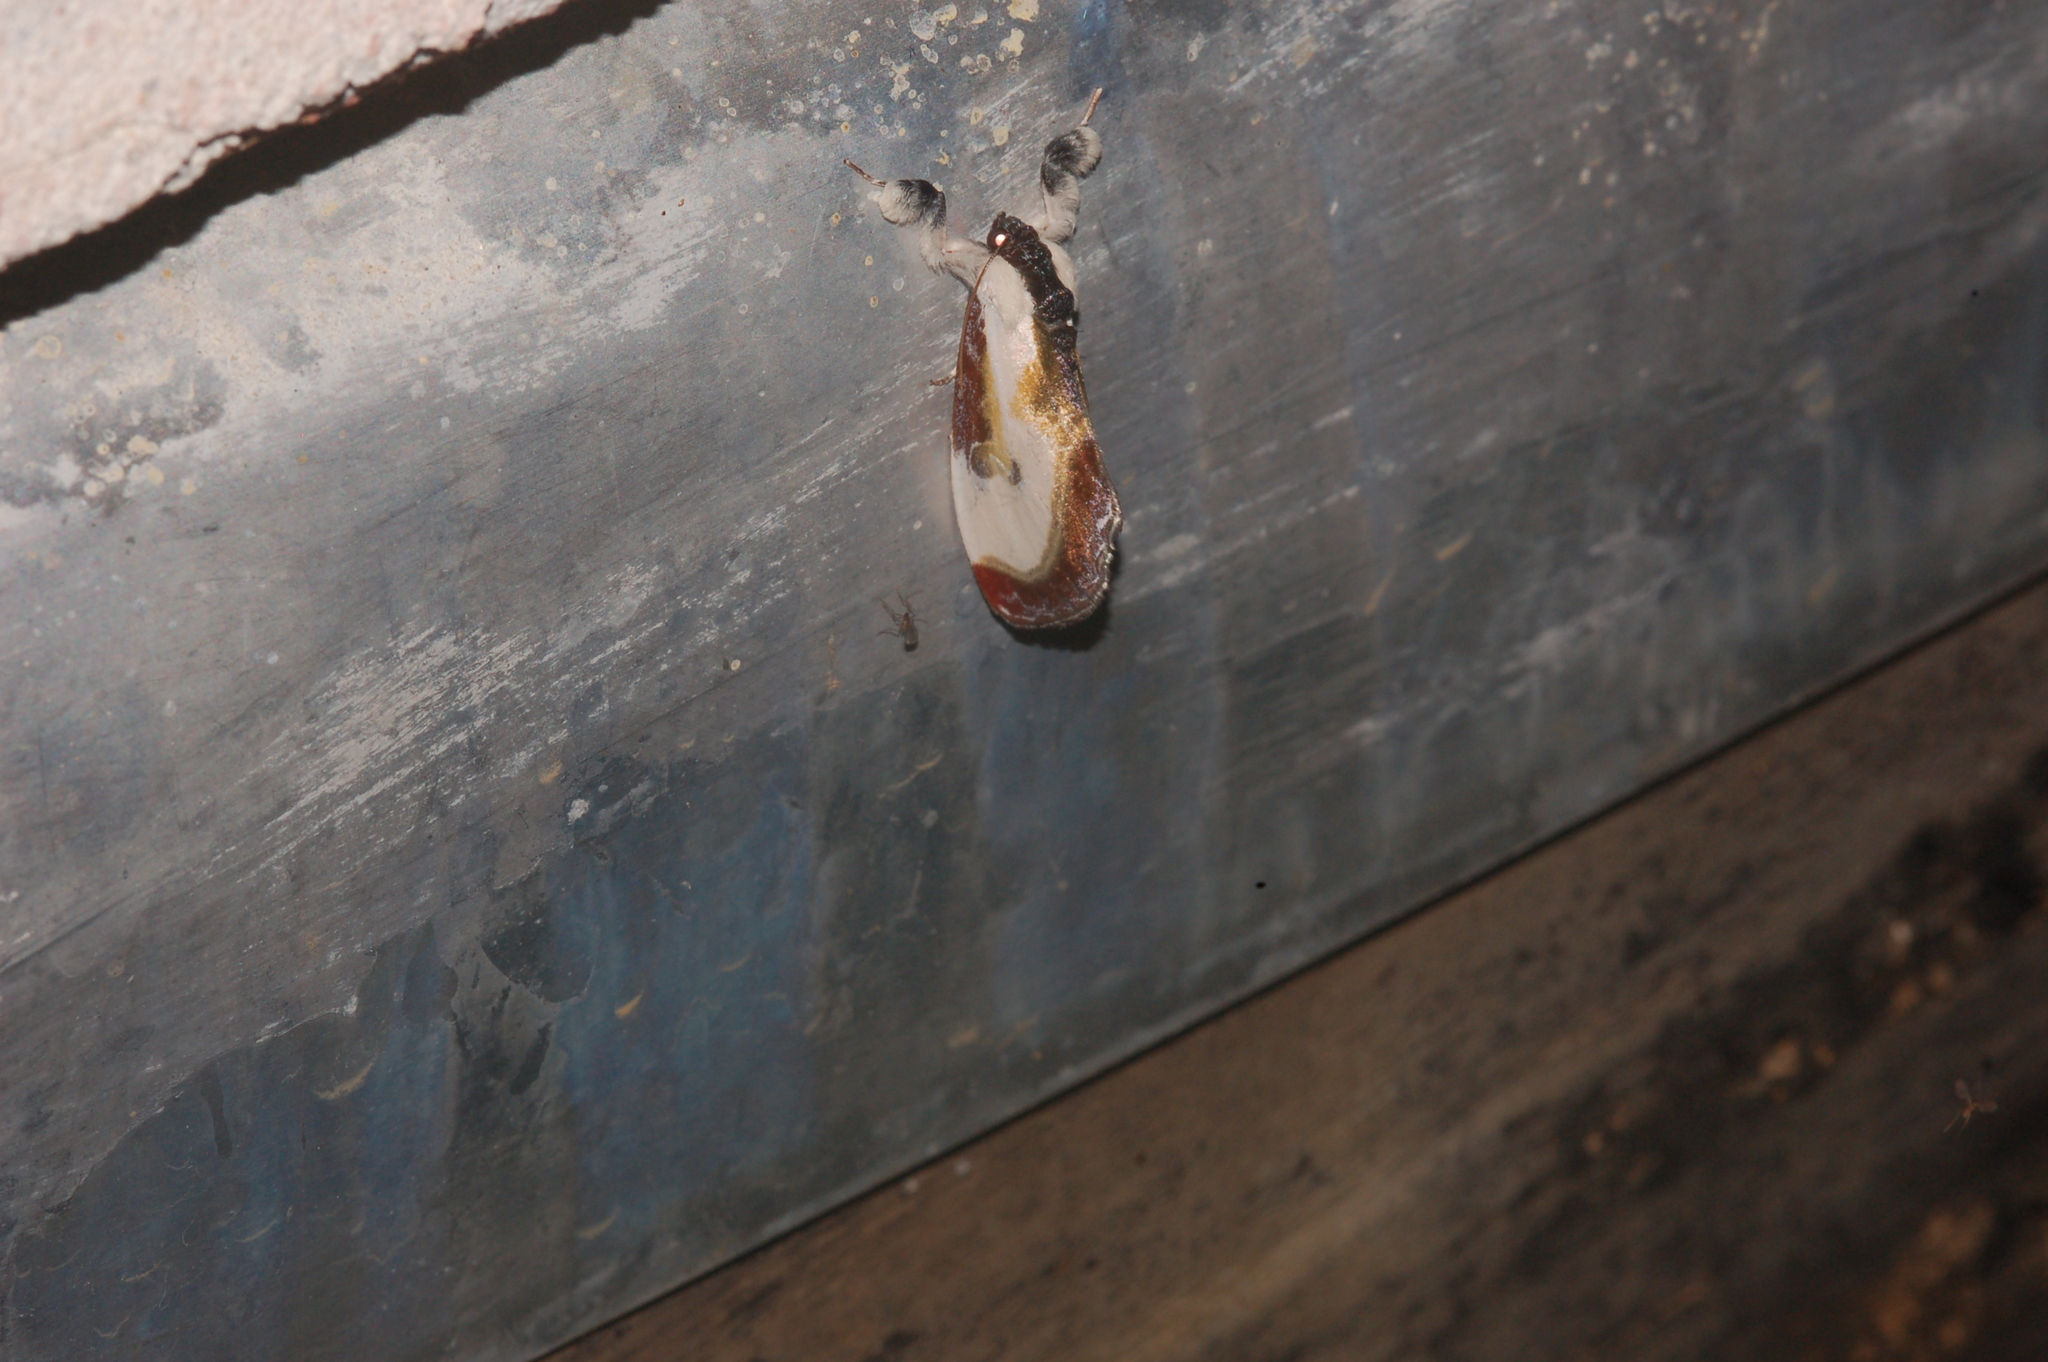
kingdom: Animalia
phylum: Arthropoda
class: Insecta
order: Lepidoptera
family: Noctuidae
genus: Eudryas
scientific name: Eudryas grata
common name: Beautiful wood-nymph
